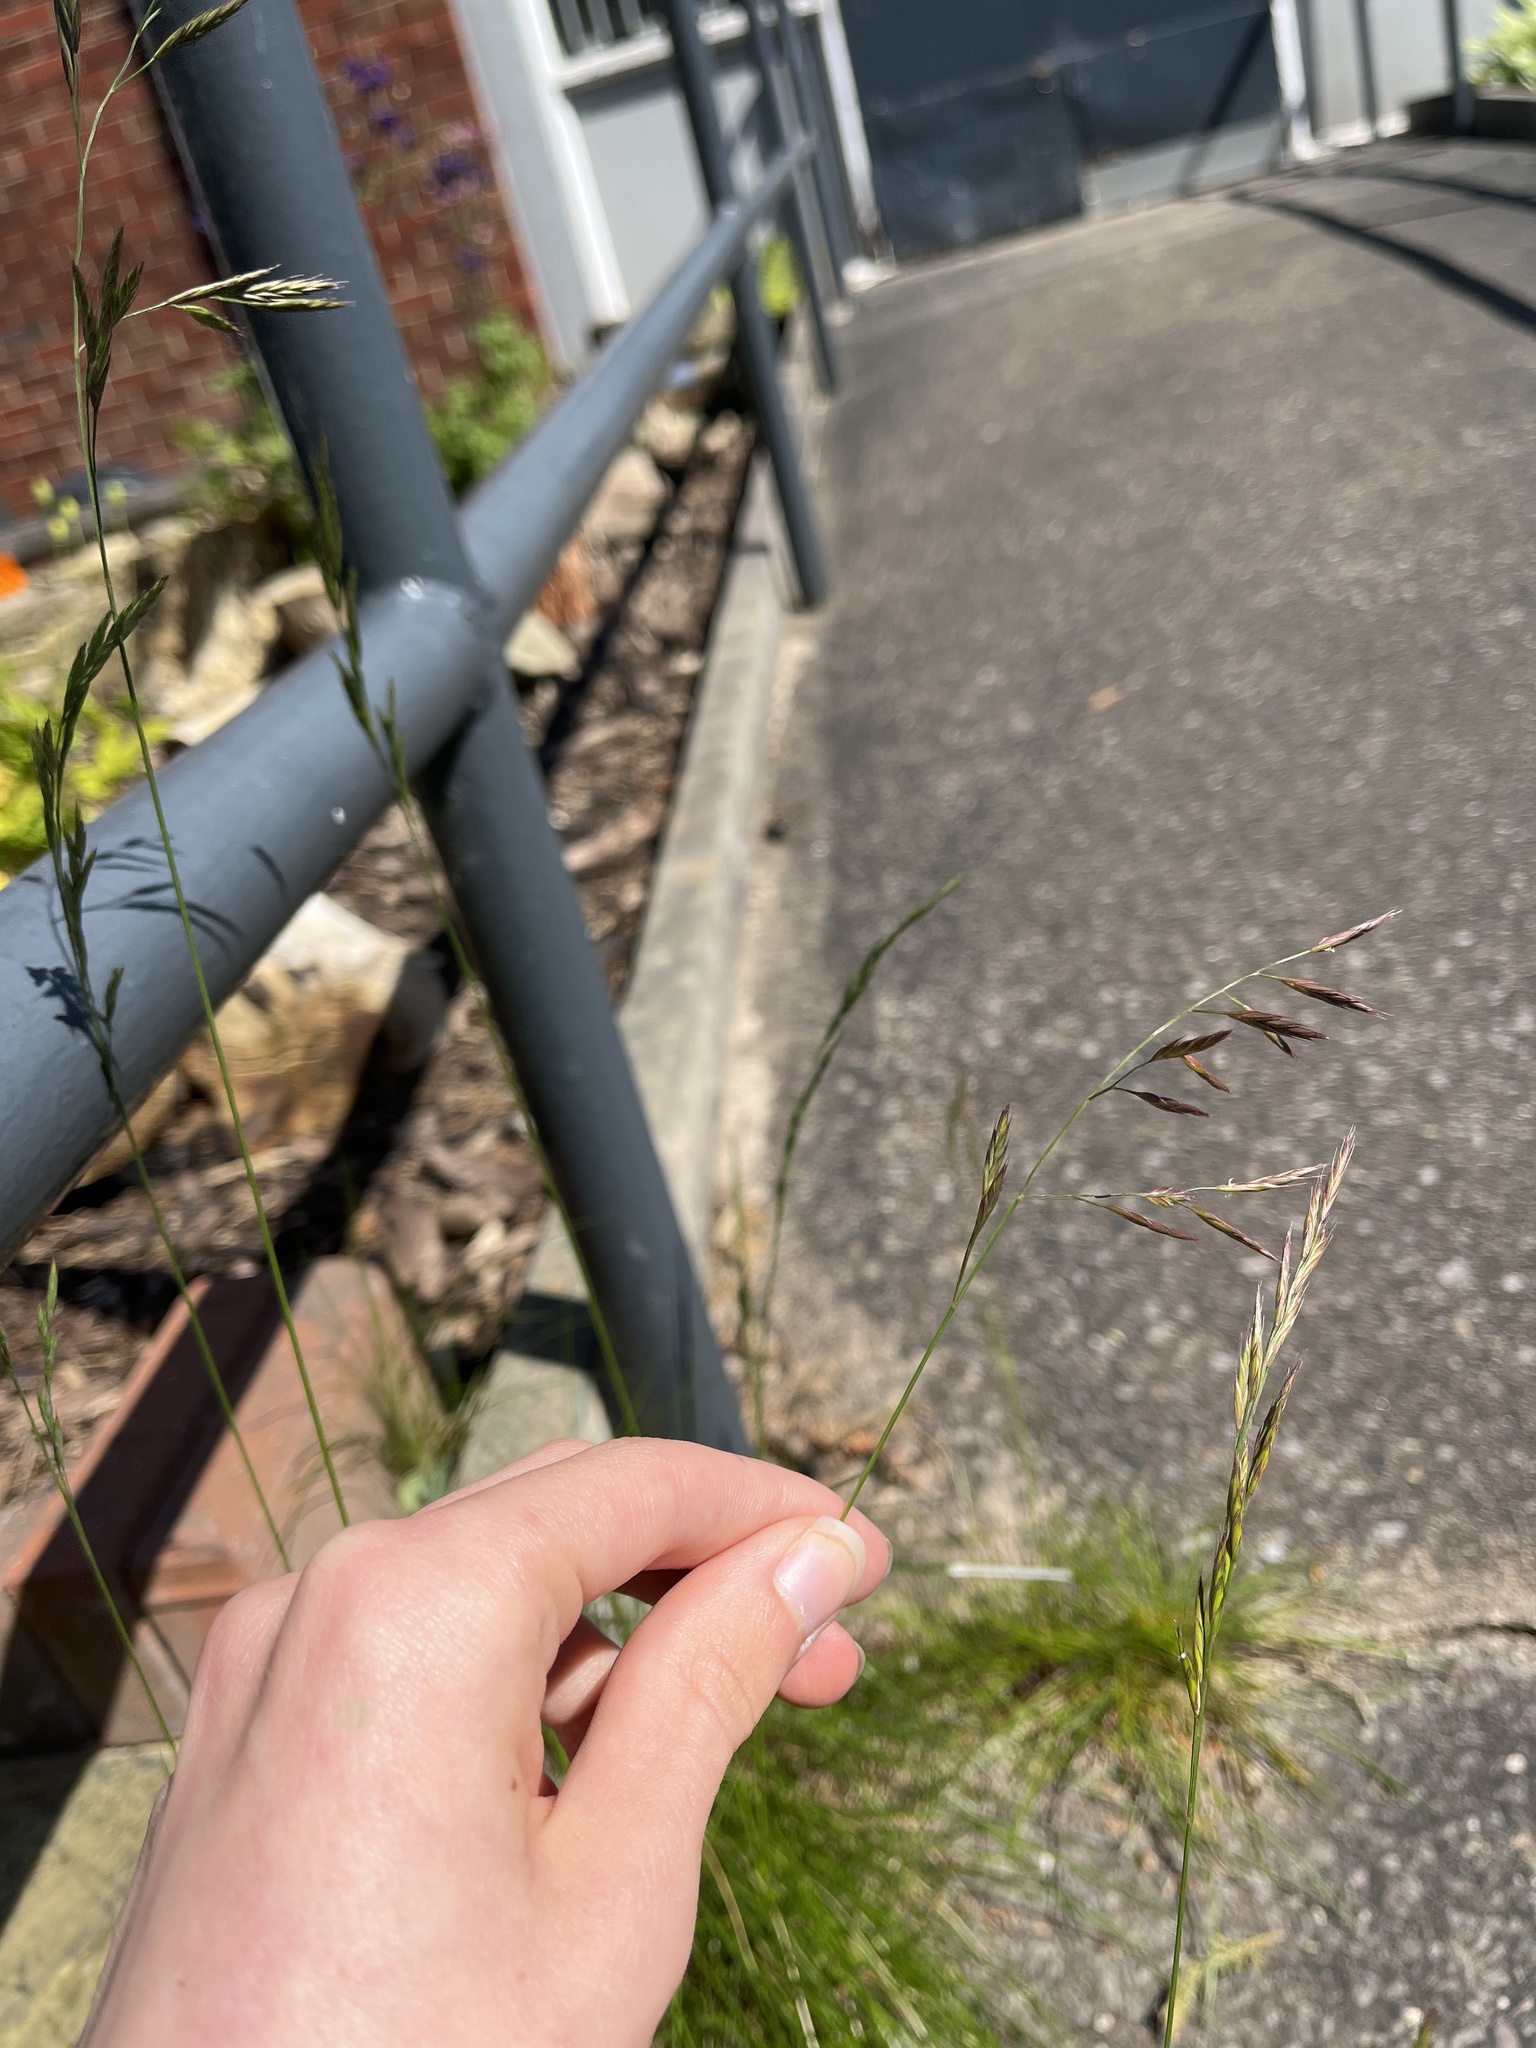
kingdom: Plantae
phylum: Tracheophyta
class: Liliopsida
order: Poales
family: Poaceae
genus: Festuca
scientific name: Festuca rubra
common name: Red fescue
